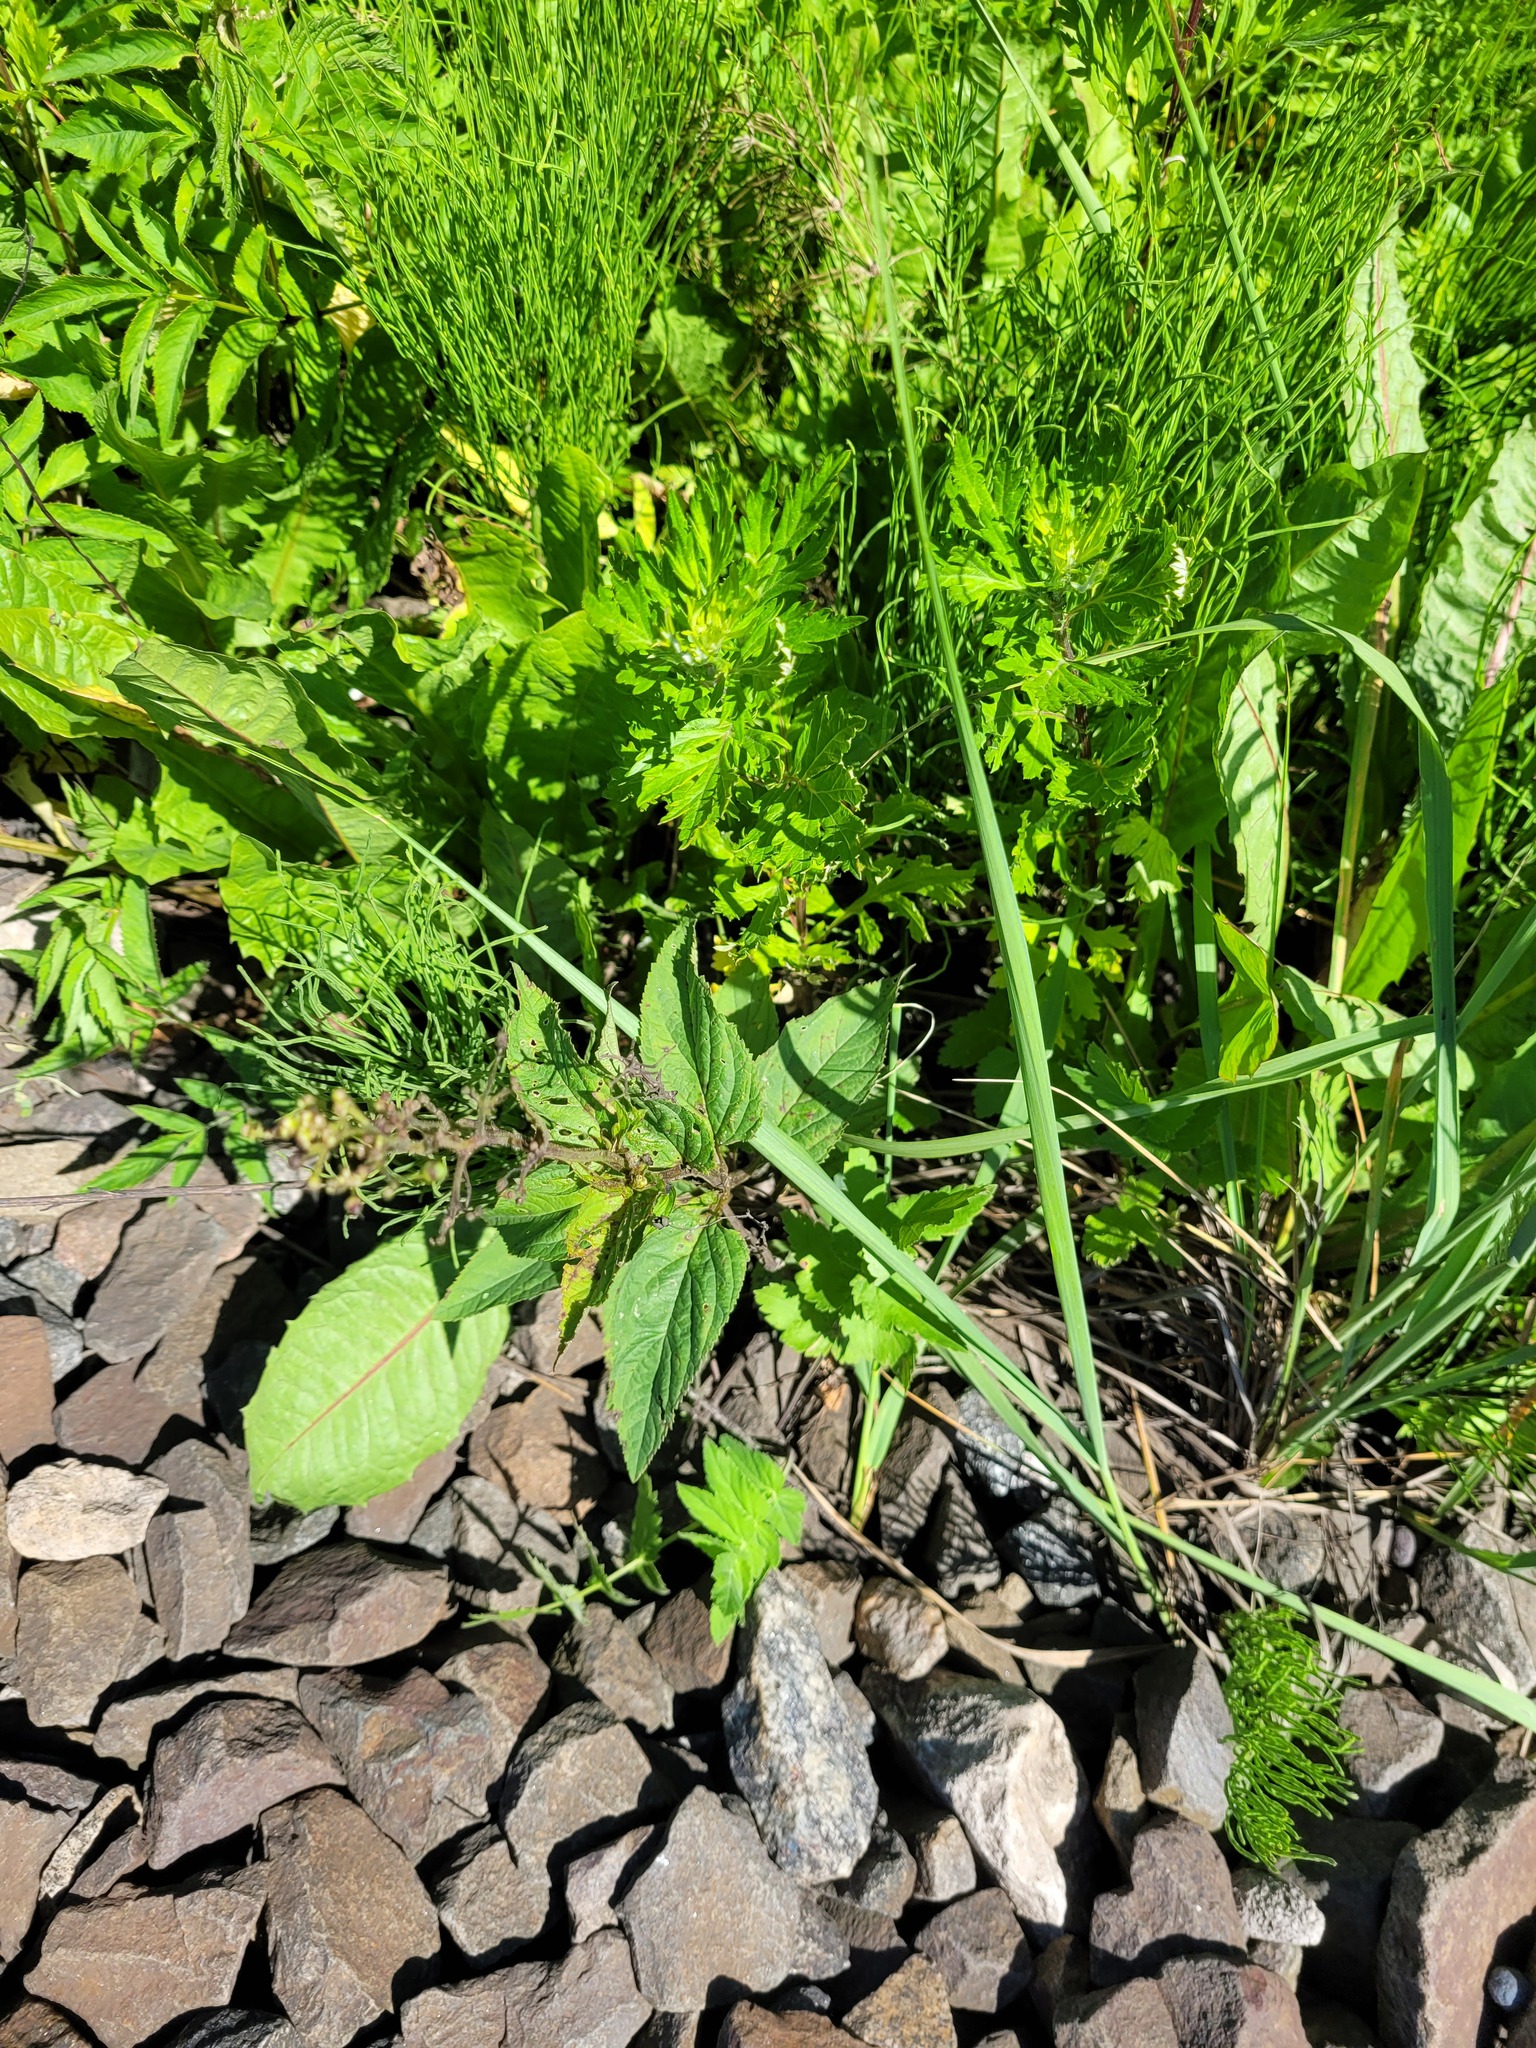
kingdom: Plantae
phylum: Tracheophyta
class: Magnoliopsida
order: Lamiales
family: Scrophulariaceae
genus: Scrophularia
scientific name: Scrophularia nodosa
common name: Common figwort
